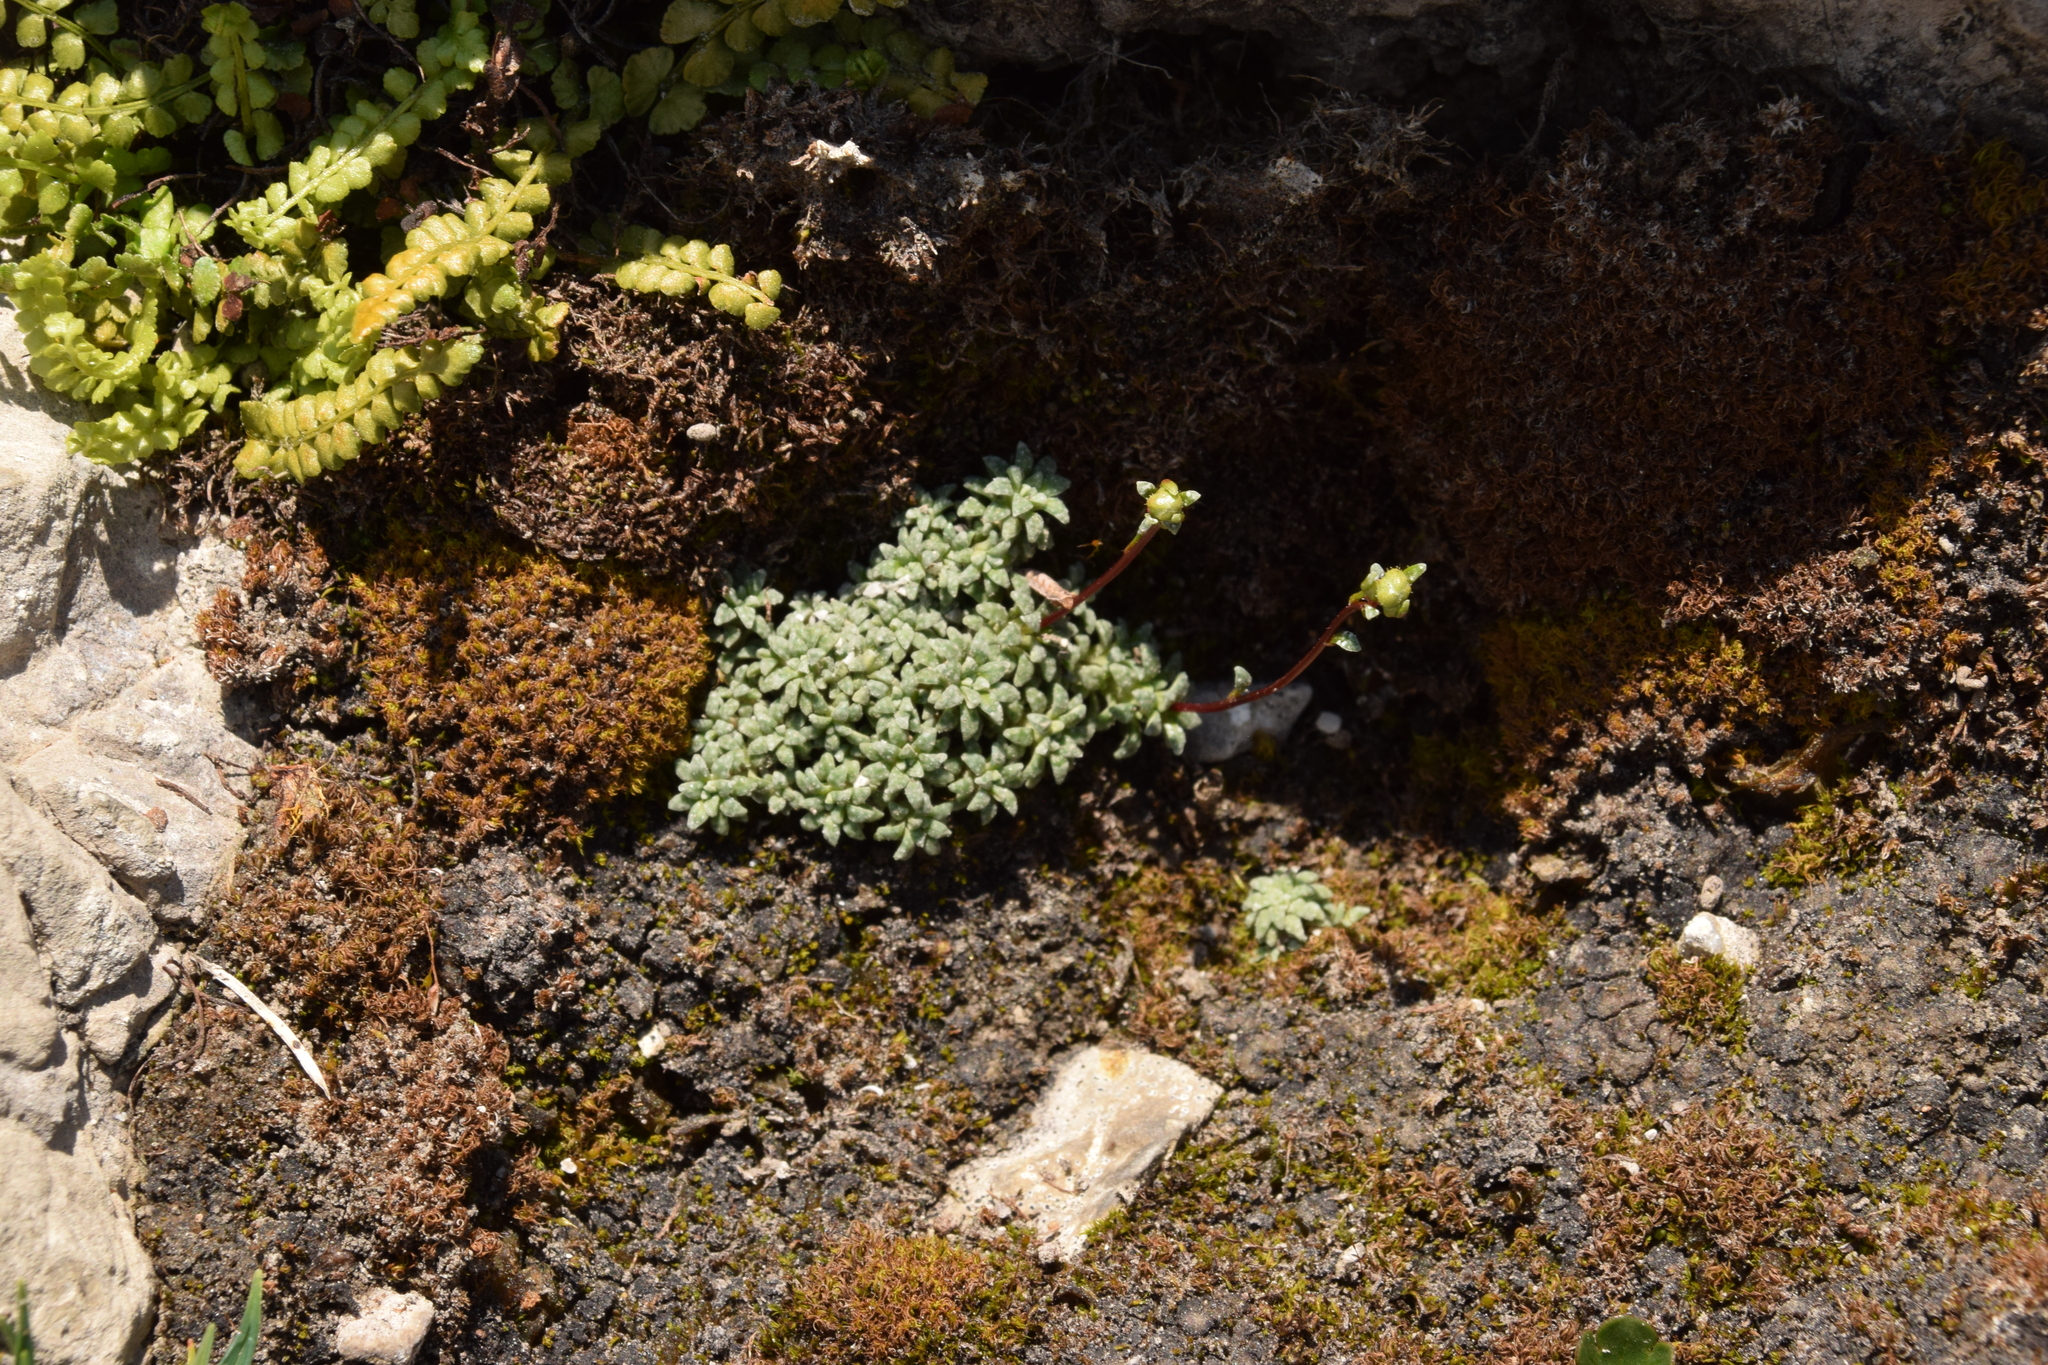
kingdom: Plantae
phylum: Tracheophyta
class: Magnoliopsida
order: Saxifragales
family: Saxifragaceae
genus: Saxifraga
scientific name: Saxifraga caesia
